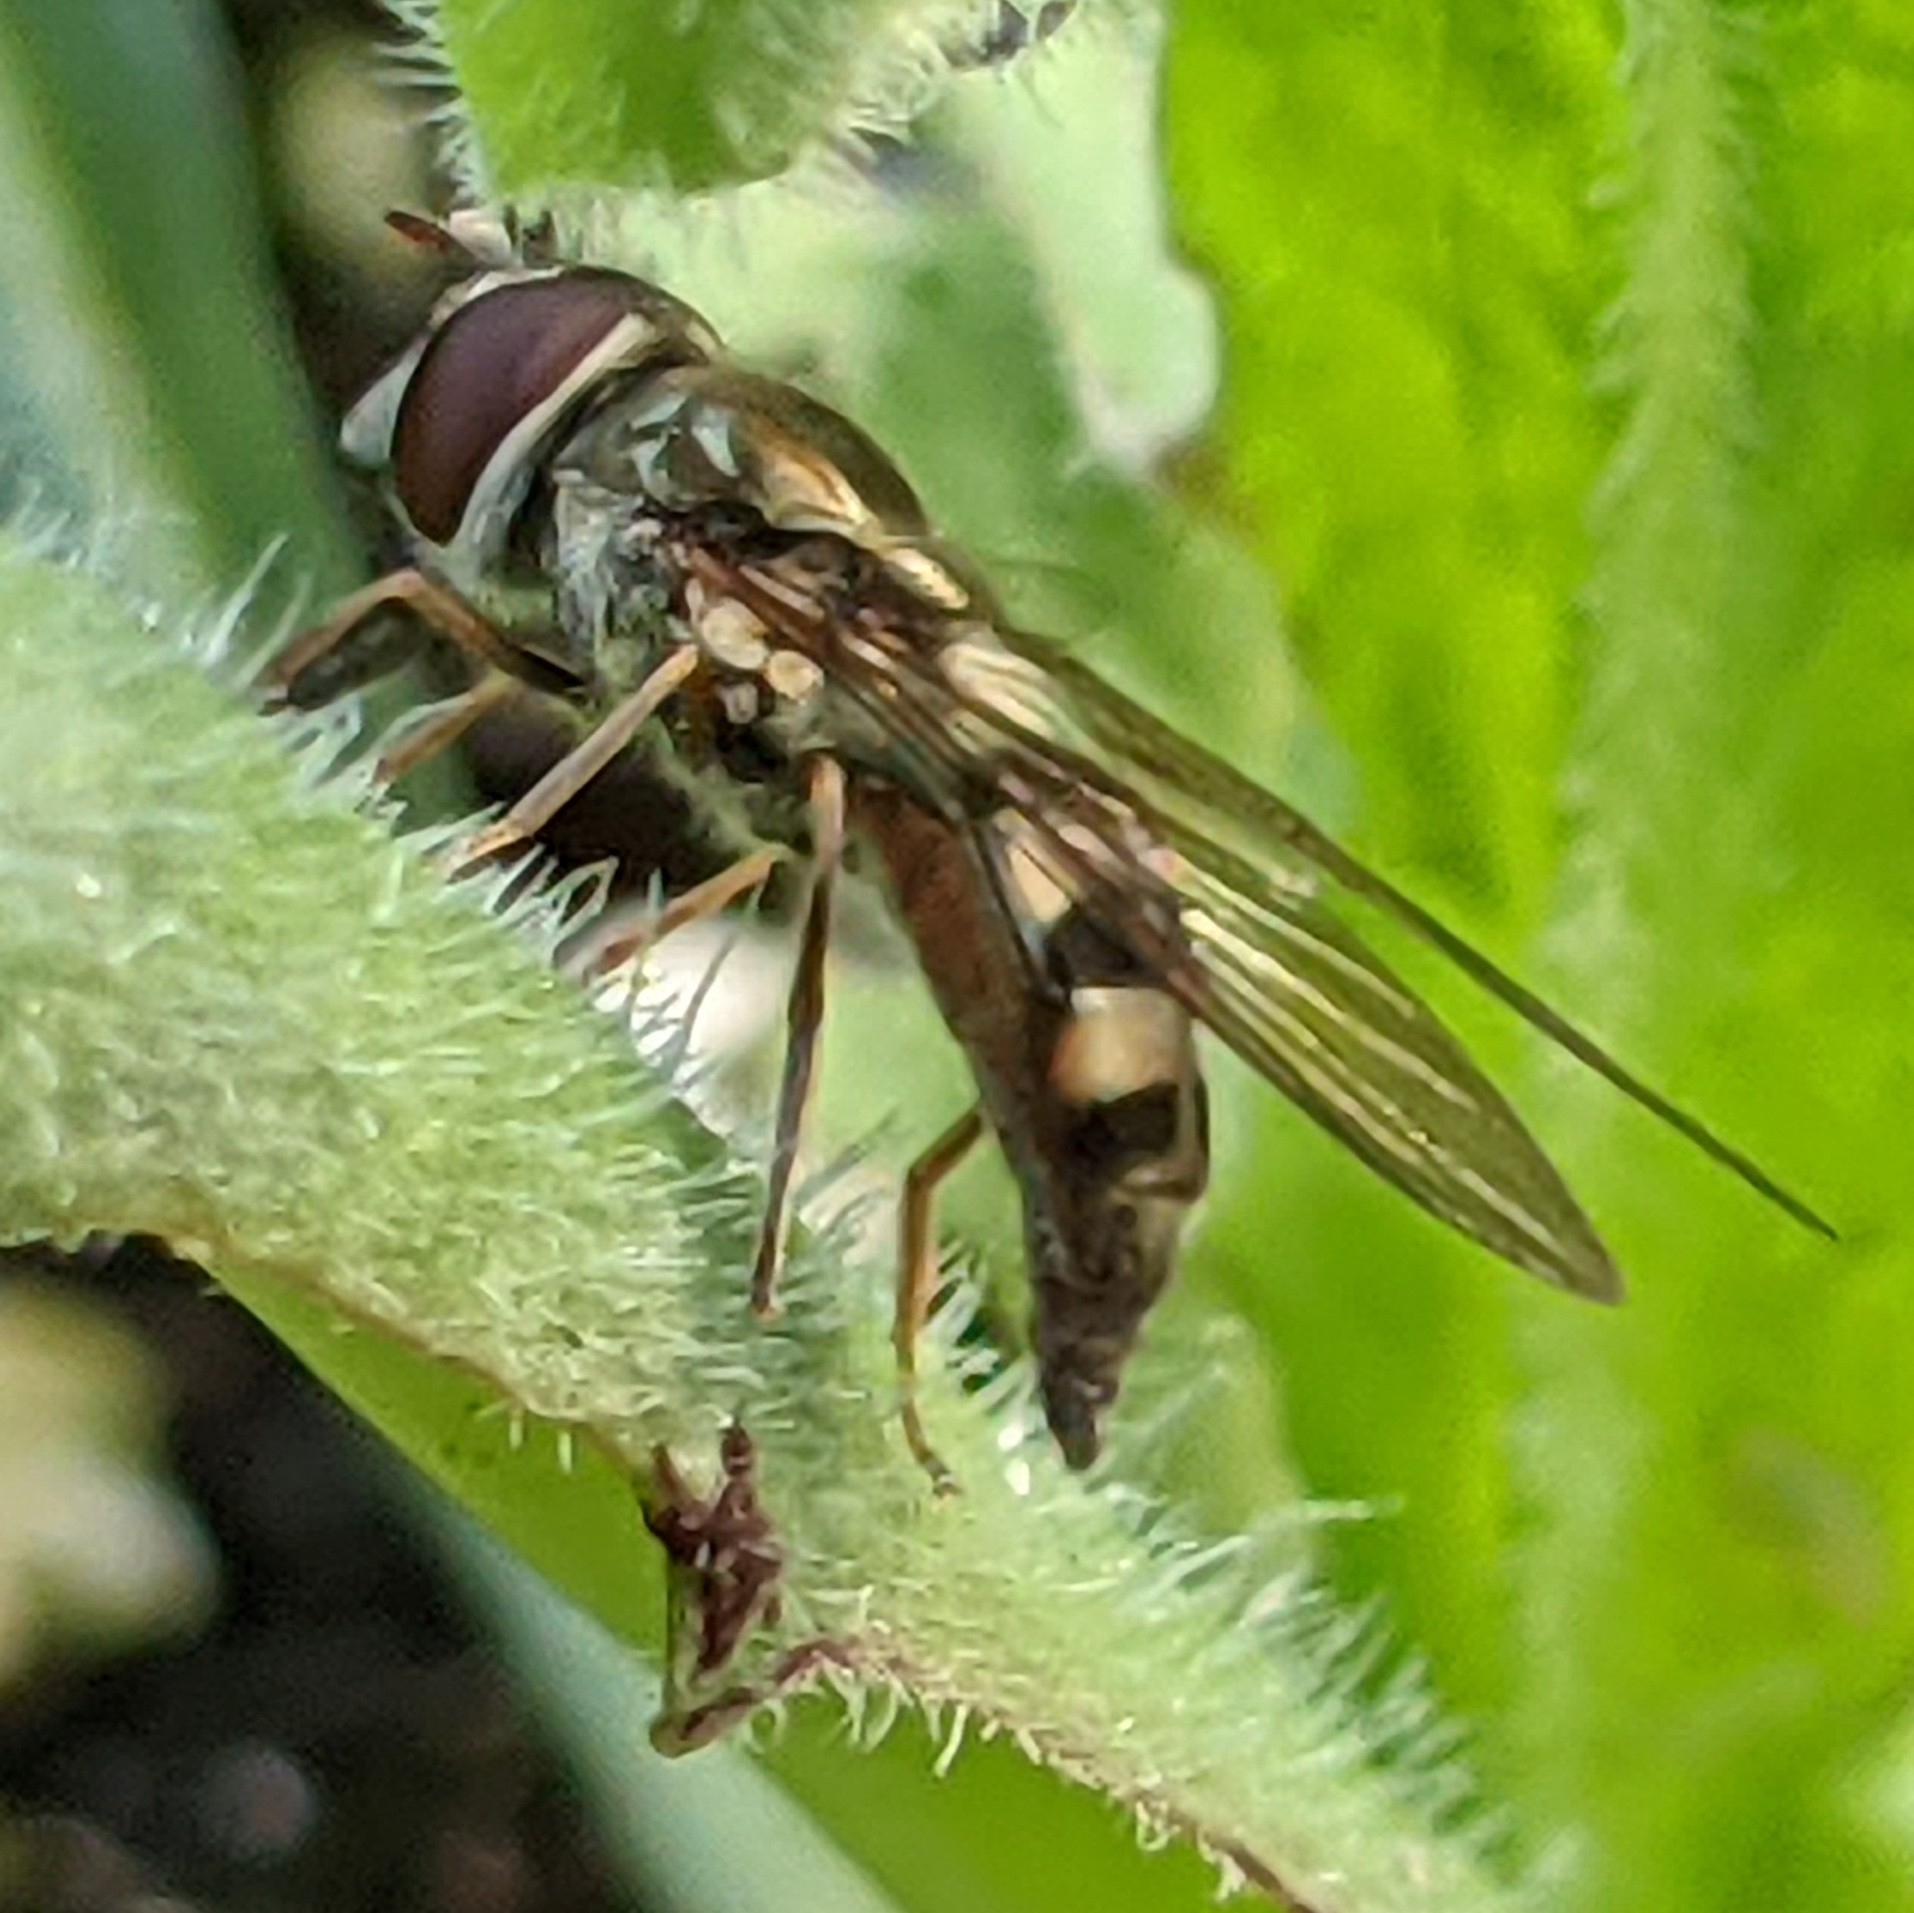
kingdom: Animalia
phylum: Arthropoda
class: Insecta
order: Diptera
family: Syrphidae
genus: Platycheirus
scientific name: Platycheirus trichopus
